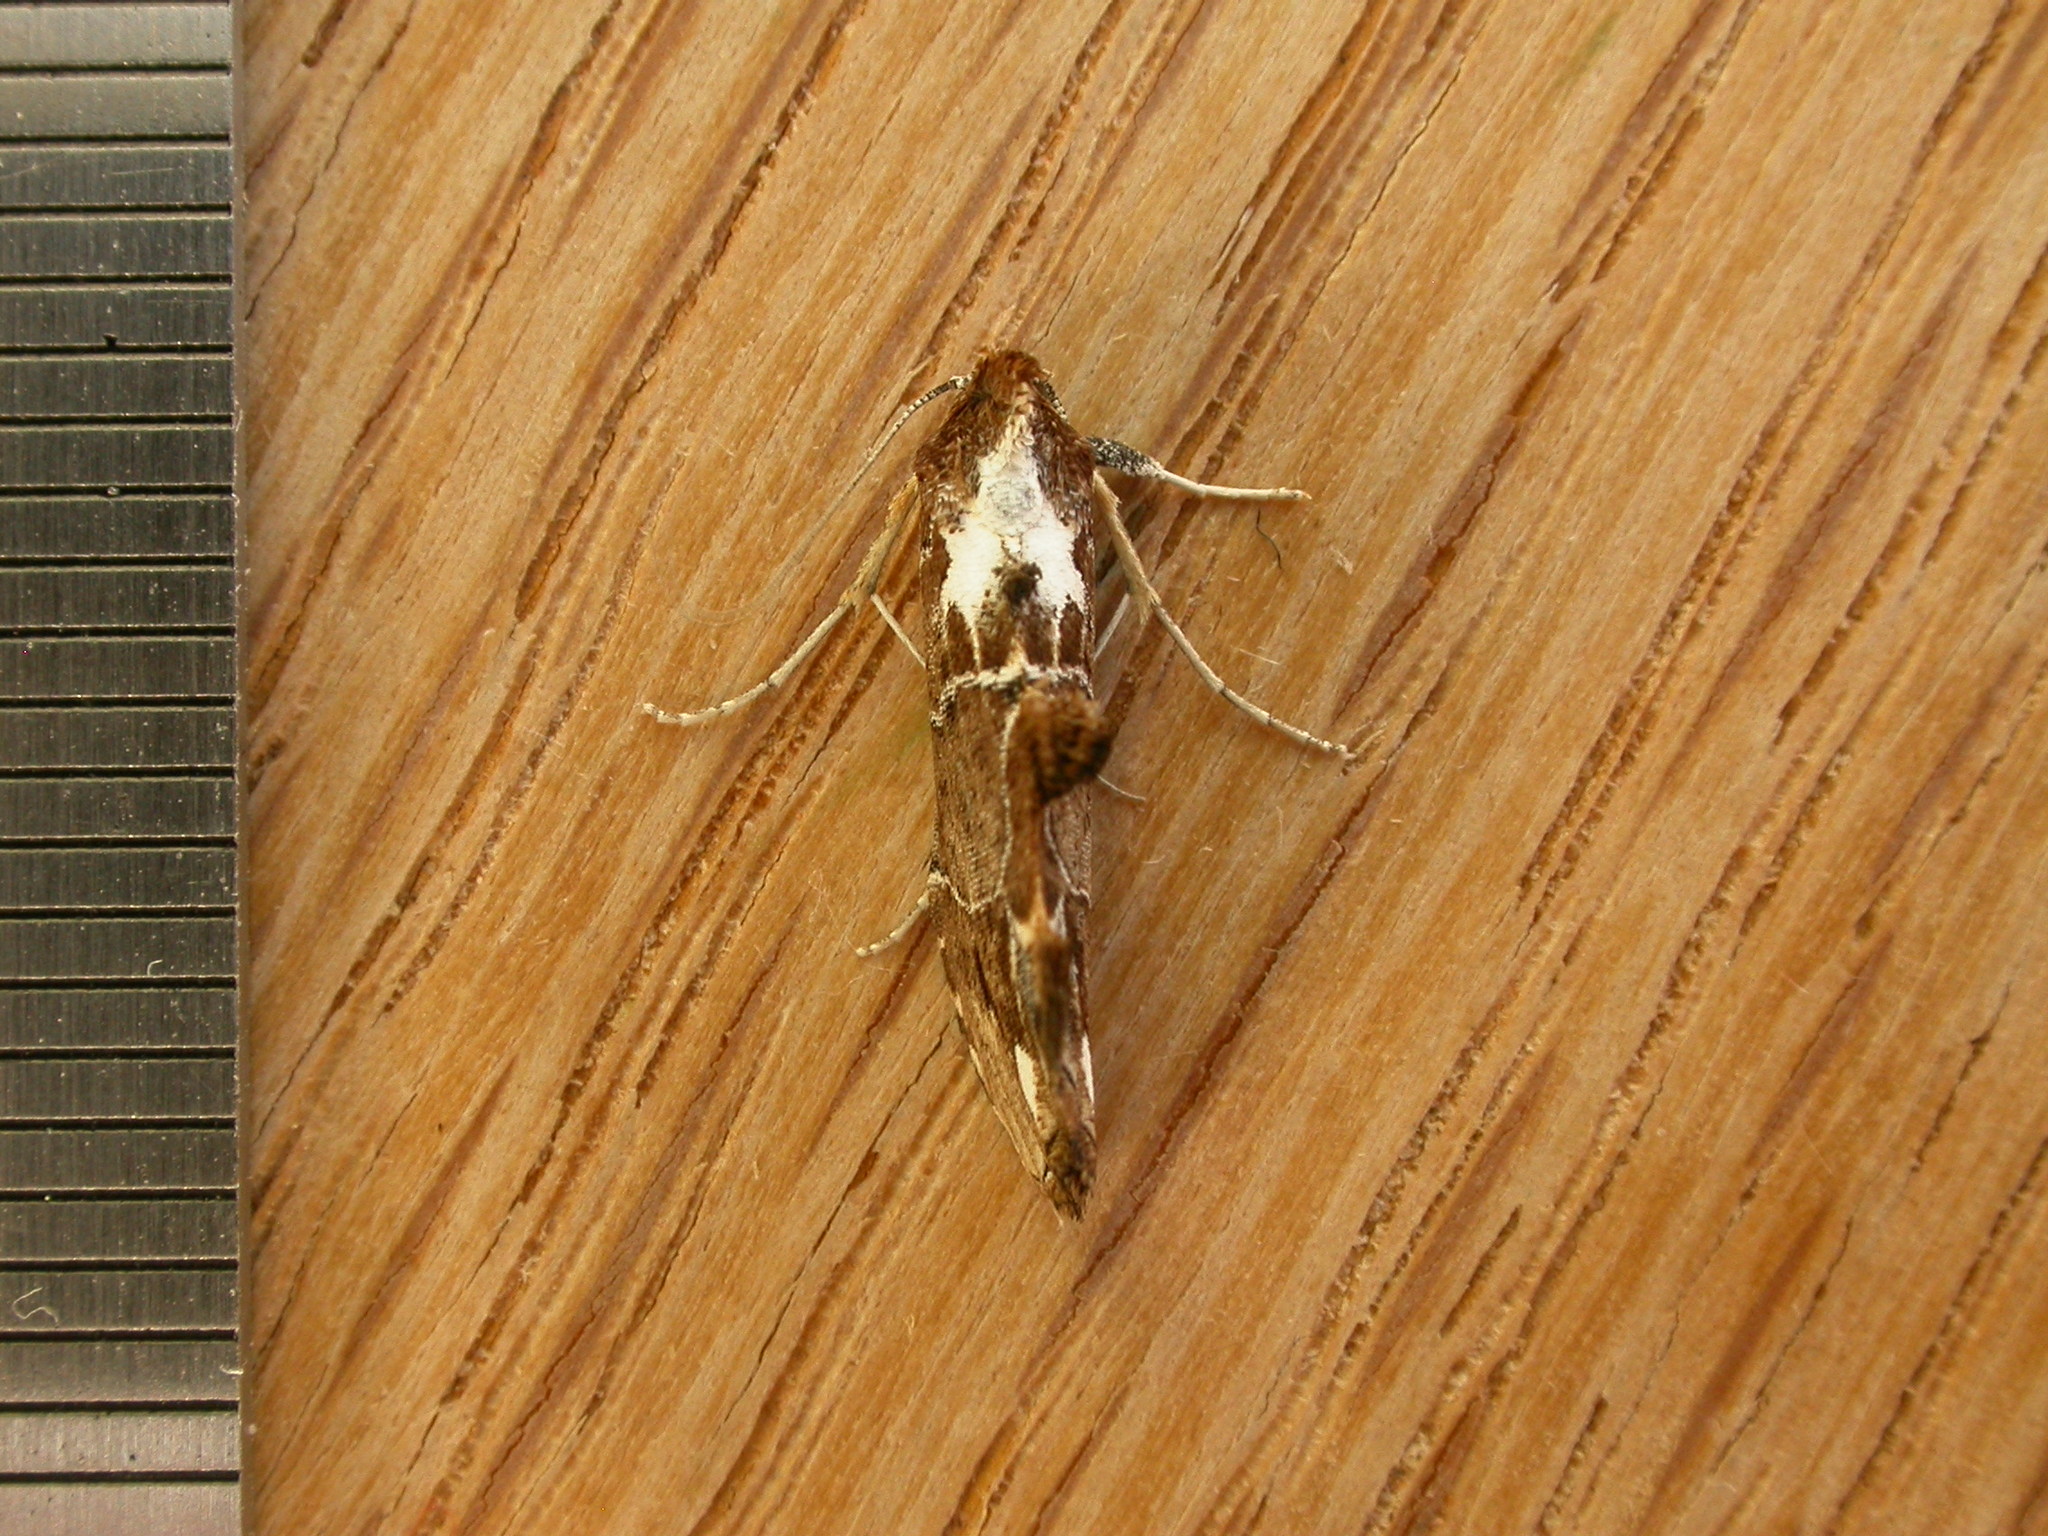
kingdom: Animalia
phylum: Arthropoda
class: Insecta
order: Lepidoptera
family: Erebidae
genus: Arrade
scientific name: Arrade leucocosmalis
